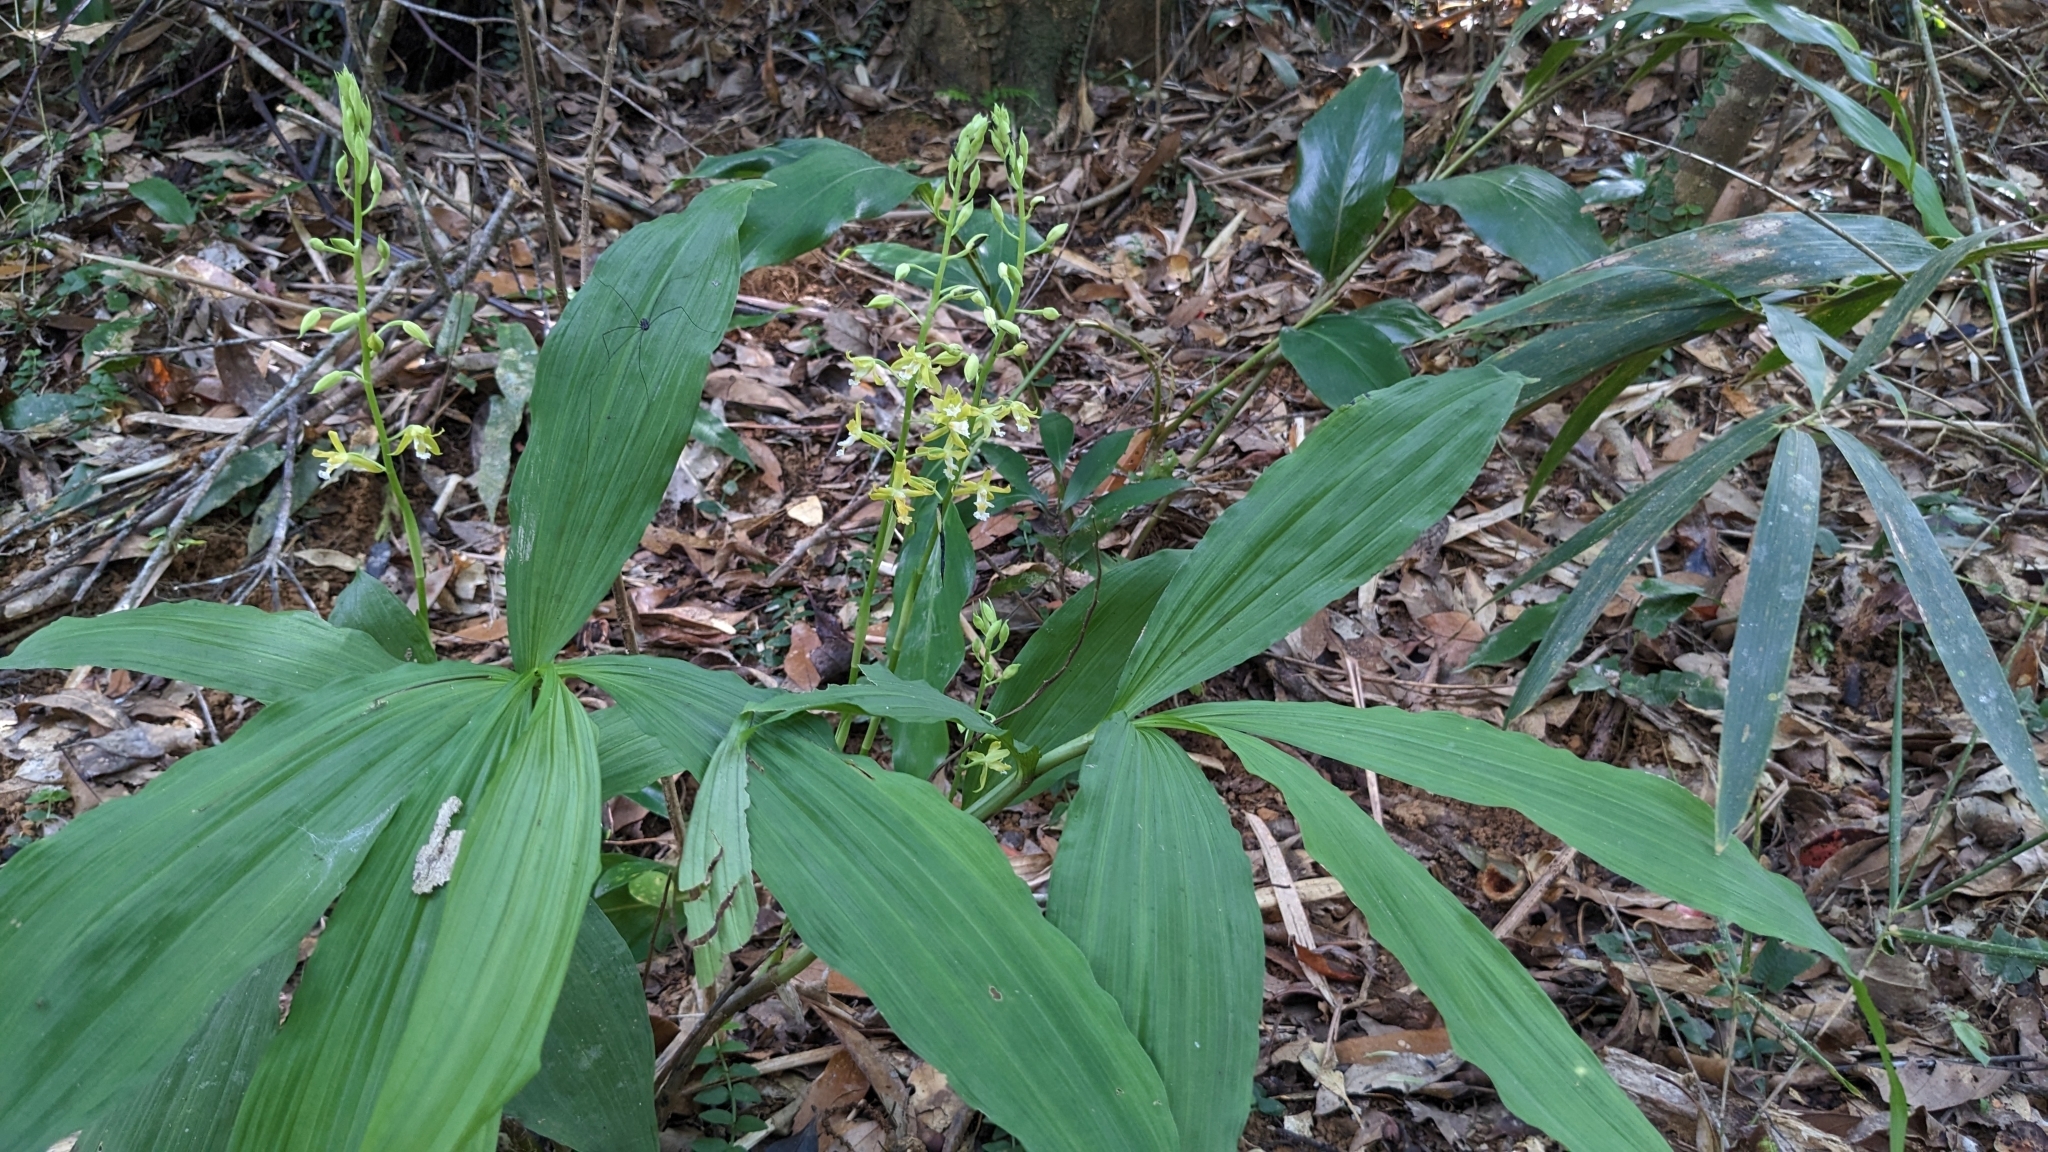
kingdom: Plantae
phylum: Tracheophyta
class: Liliopsida
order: Asparagales
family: Orchidaceae
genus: Calanthe
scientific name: Calanthe obcordata
